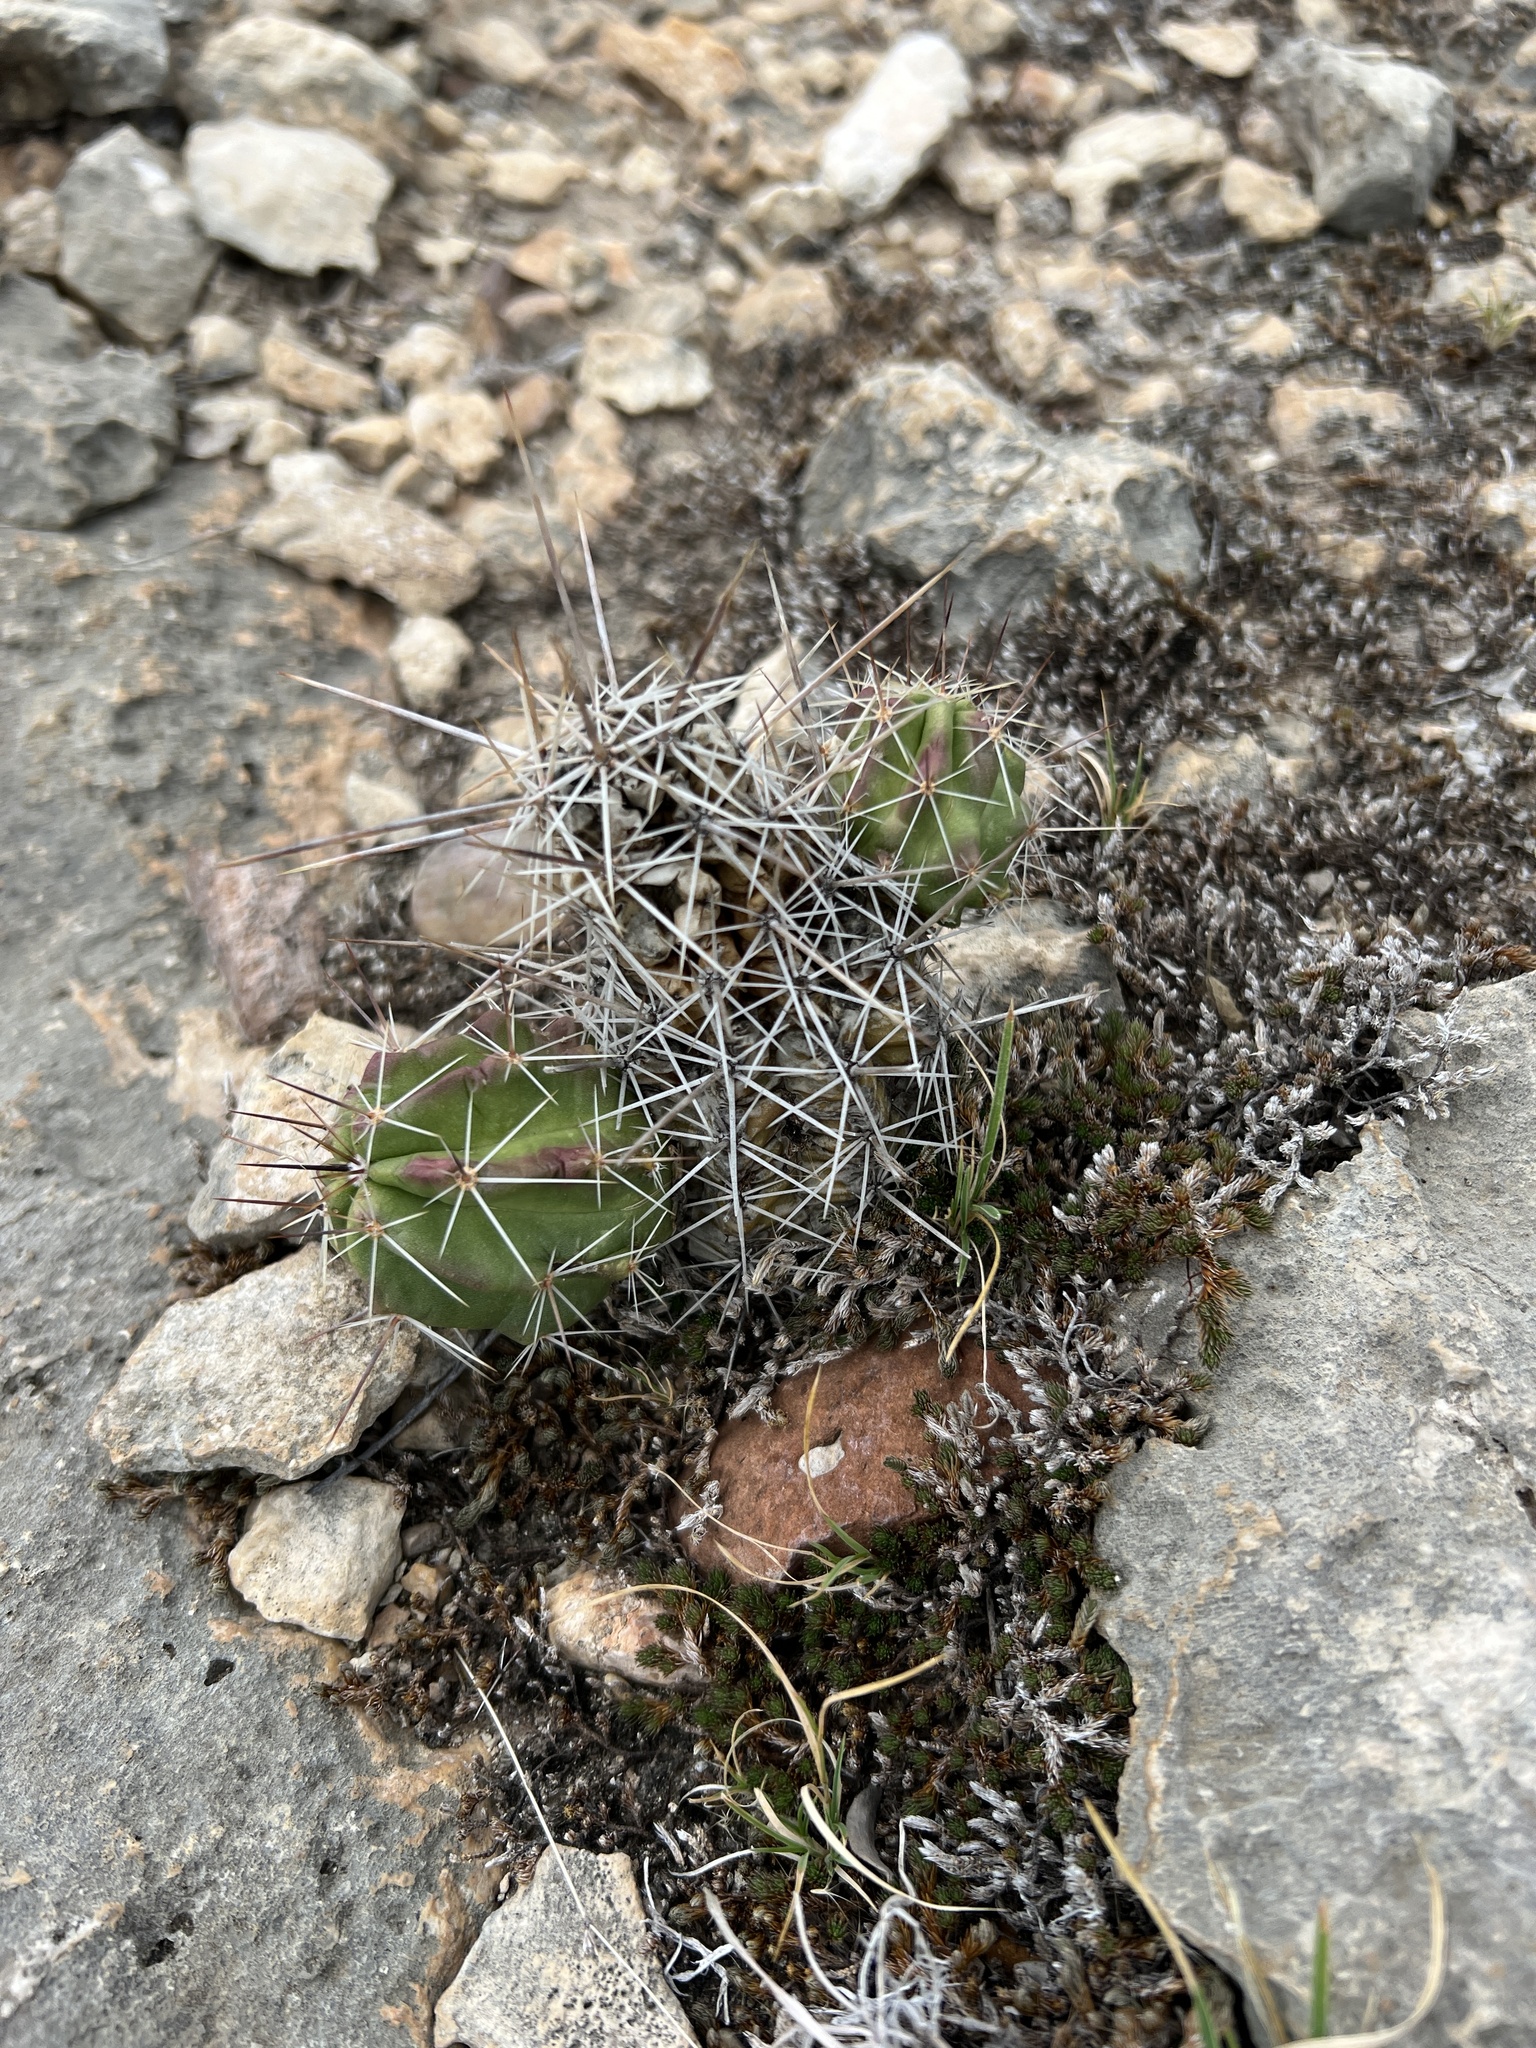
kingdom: Plantae
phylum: Tracheophyta
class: Magnoliopsida
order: Caryophyllales
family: Cactaceae
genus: Echinocereus
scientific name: Echinocereus enneacanthus
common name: Pitaya
